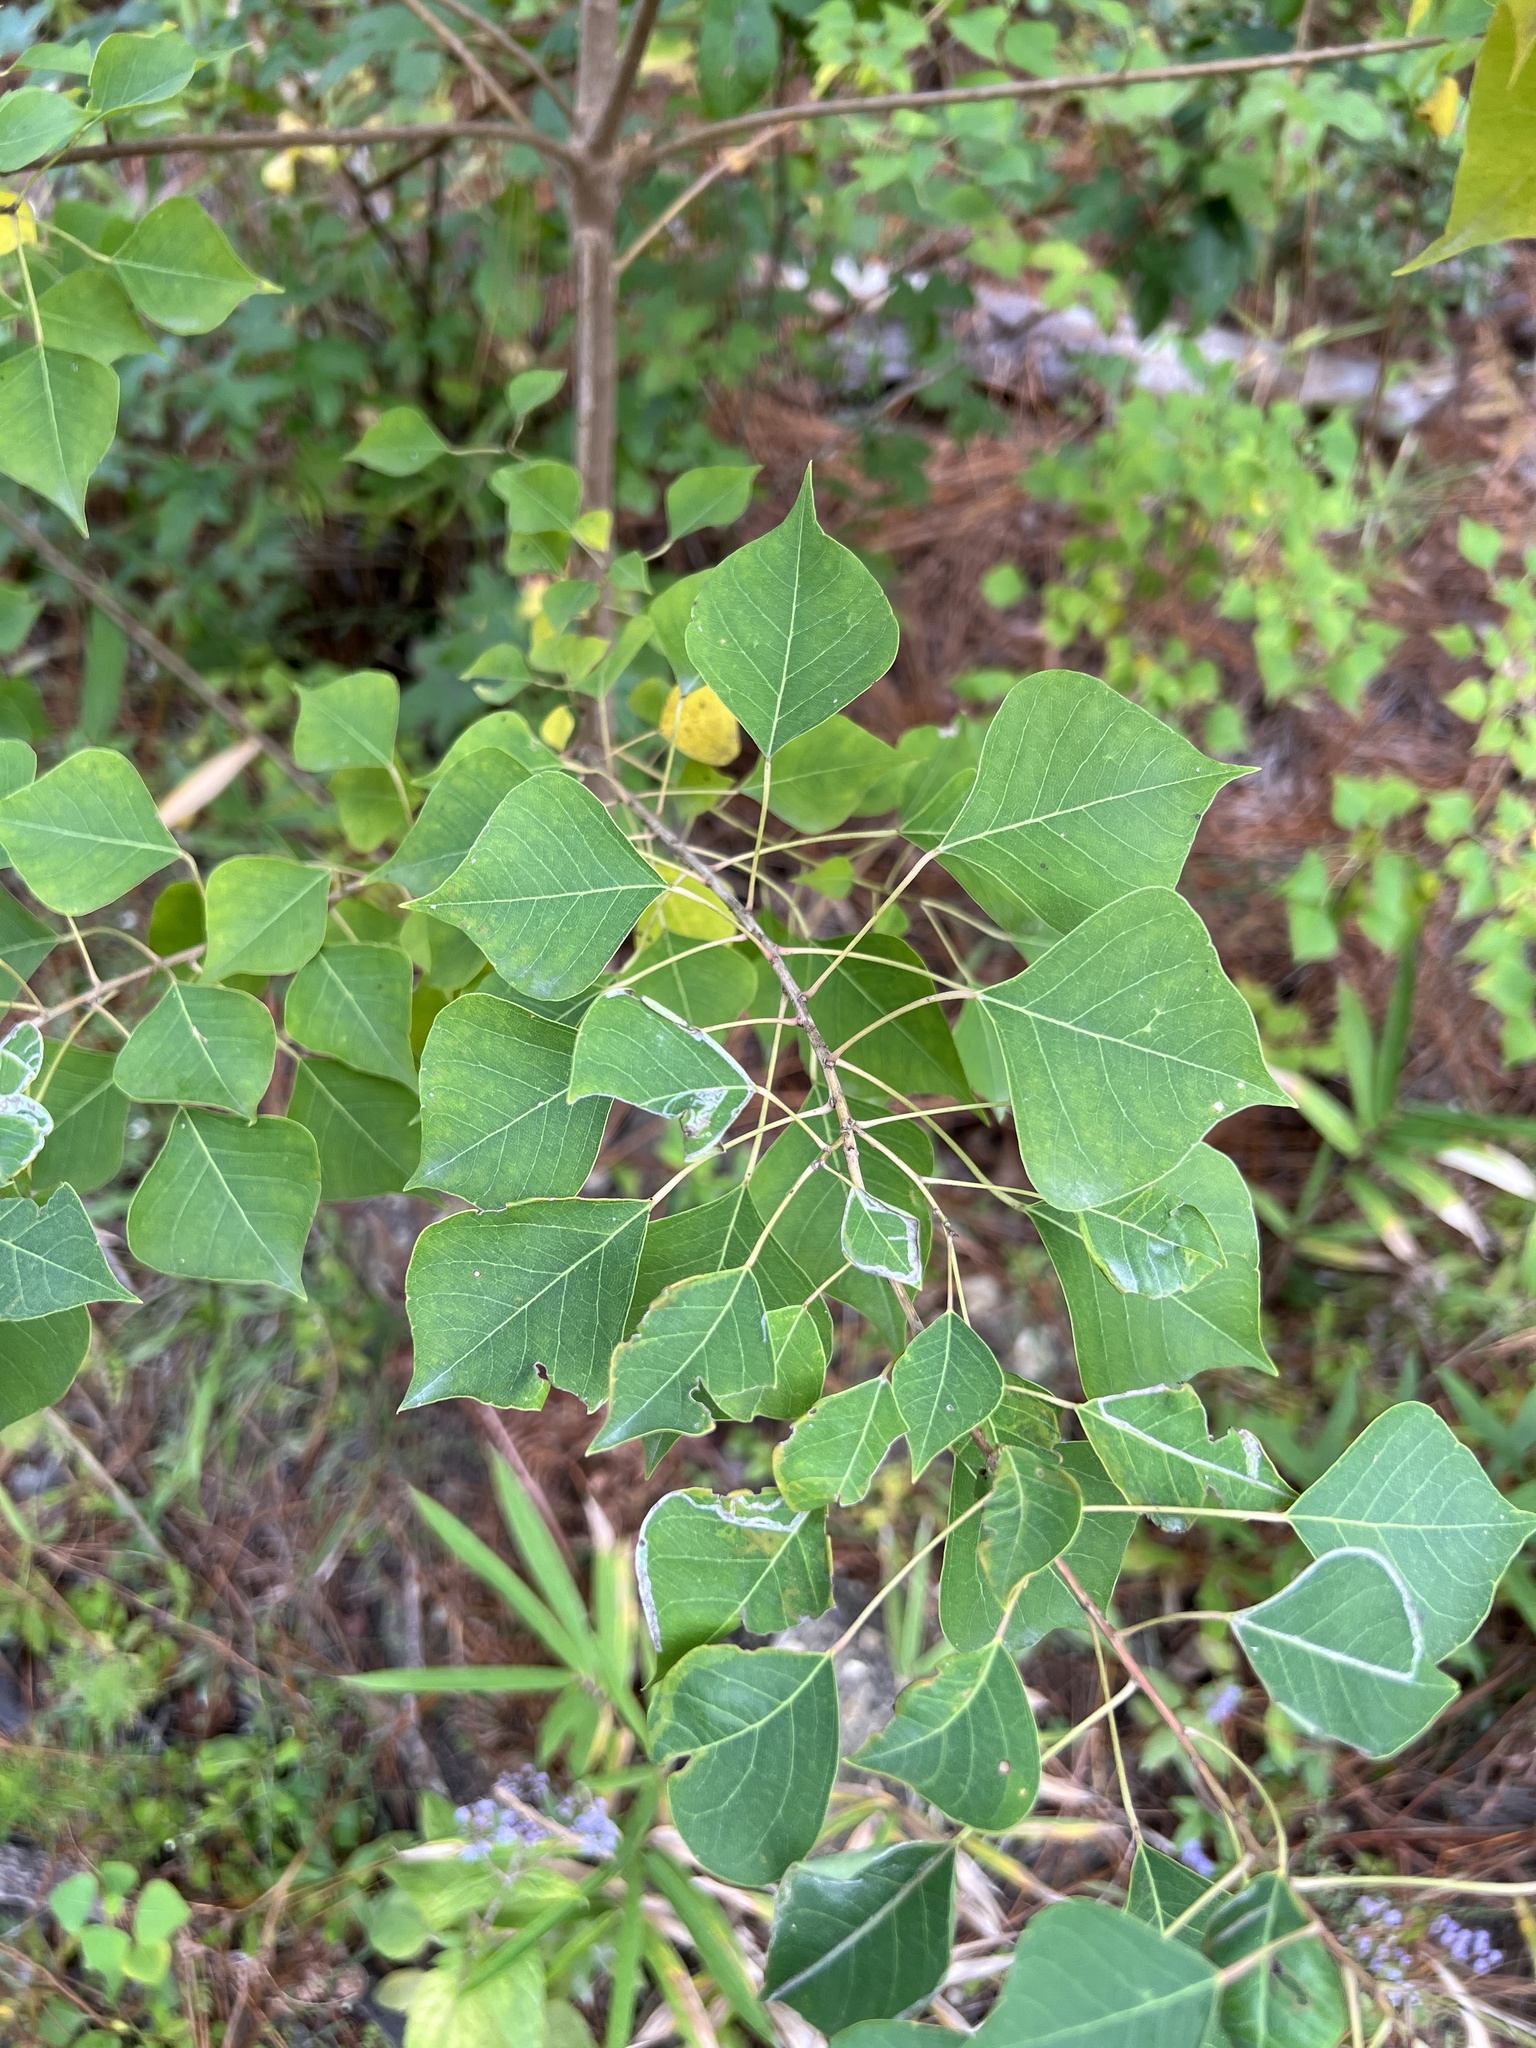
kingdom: Plantae
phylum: Tracheophyta
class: Magnoliopsida
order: Malpighiales
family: Euphorbiaceae
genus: Triadica
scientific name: Triadica sebifera
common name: Chinese tallow
